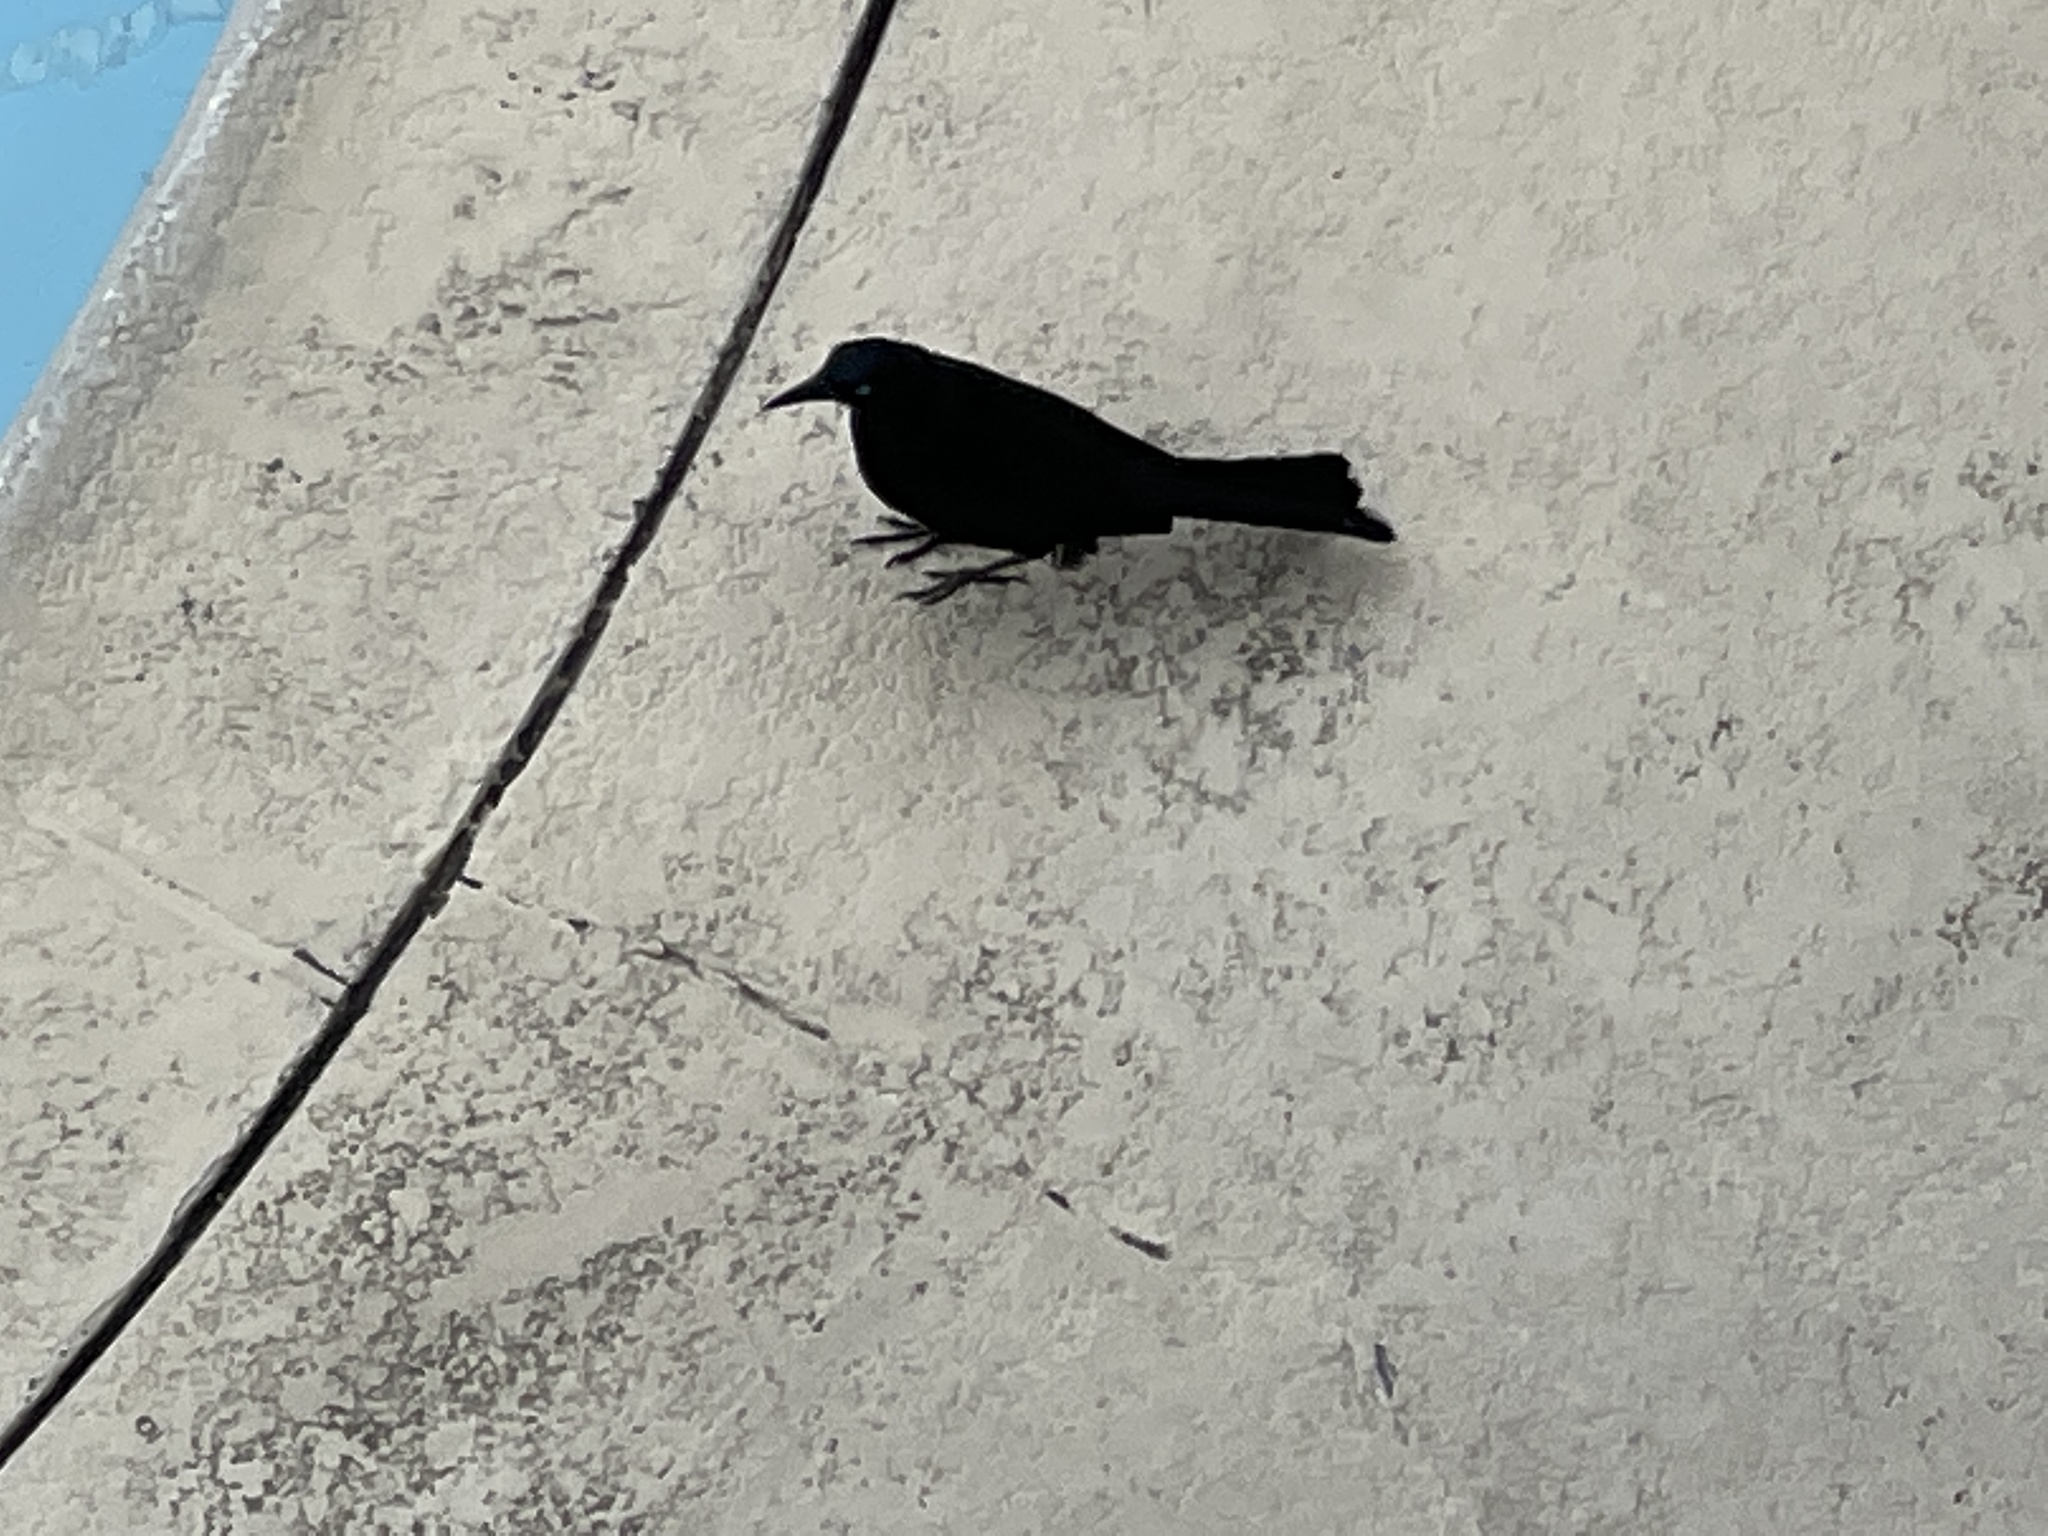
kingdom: Animalia
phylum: Chordata
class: Aves
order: Passeriformes
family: Icteridae
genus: Quiscalus
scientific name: Quiscalus mexicanus
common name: Great-tailed grackle
